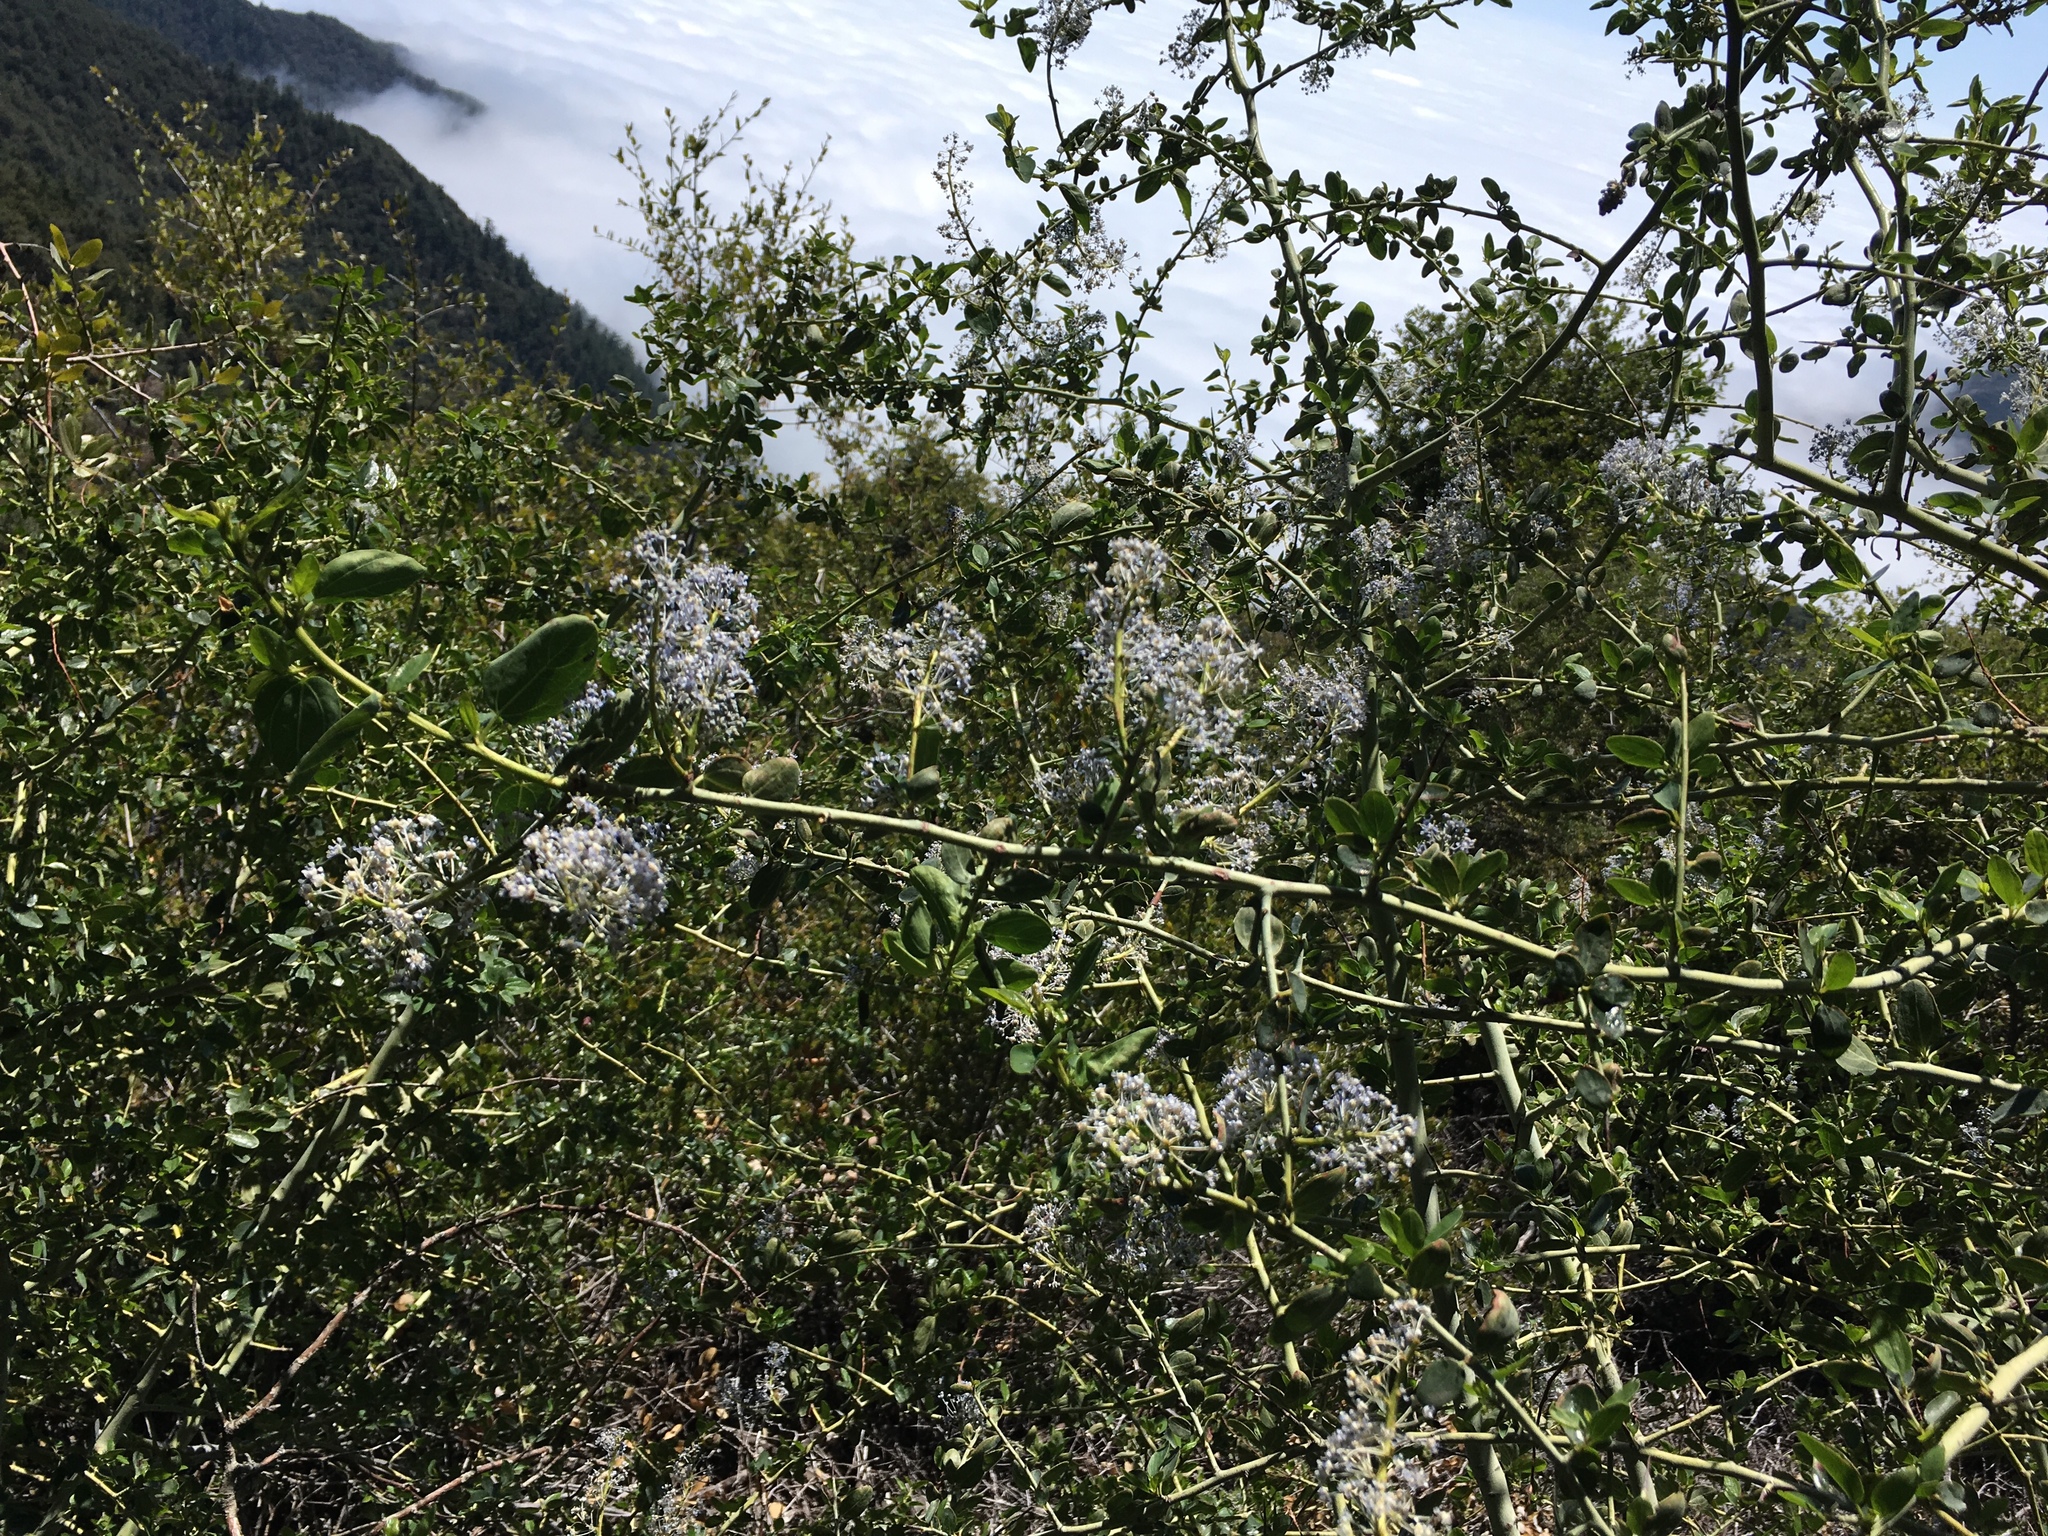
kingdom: Plantae
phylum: Tracheophyta
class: Magnoliopsida
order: Rosales
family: Rhamnaceae
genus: Ceanothus
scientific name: Ceanothus leucodermis
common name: Chaparral whitethorn
